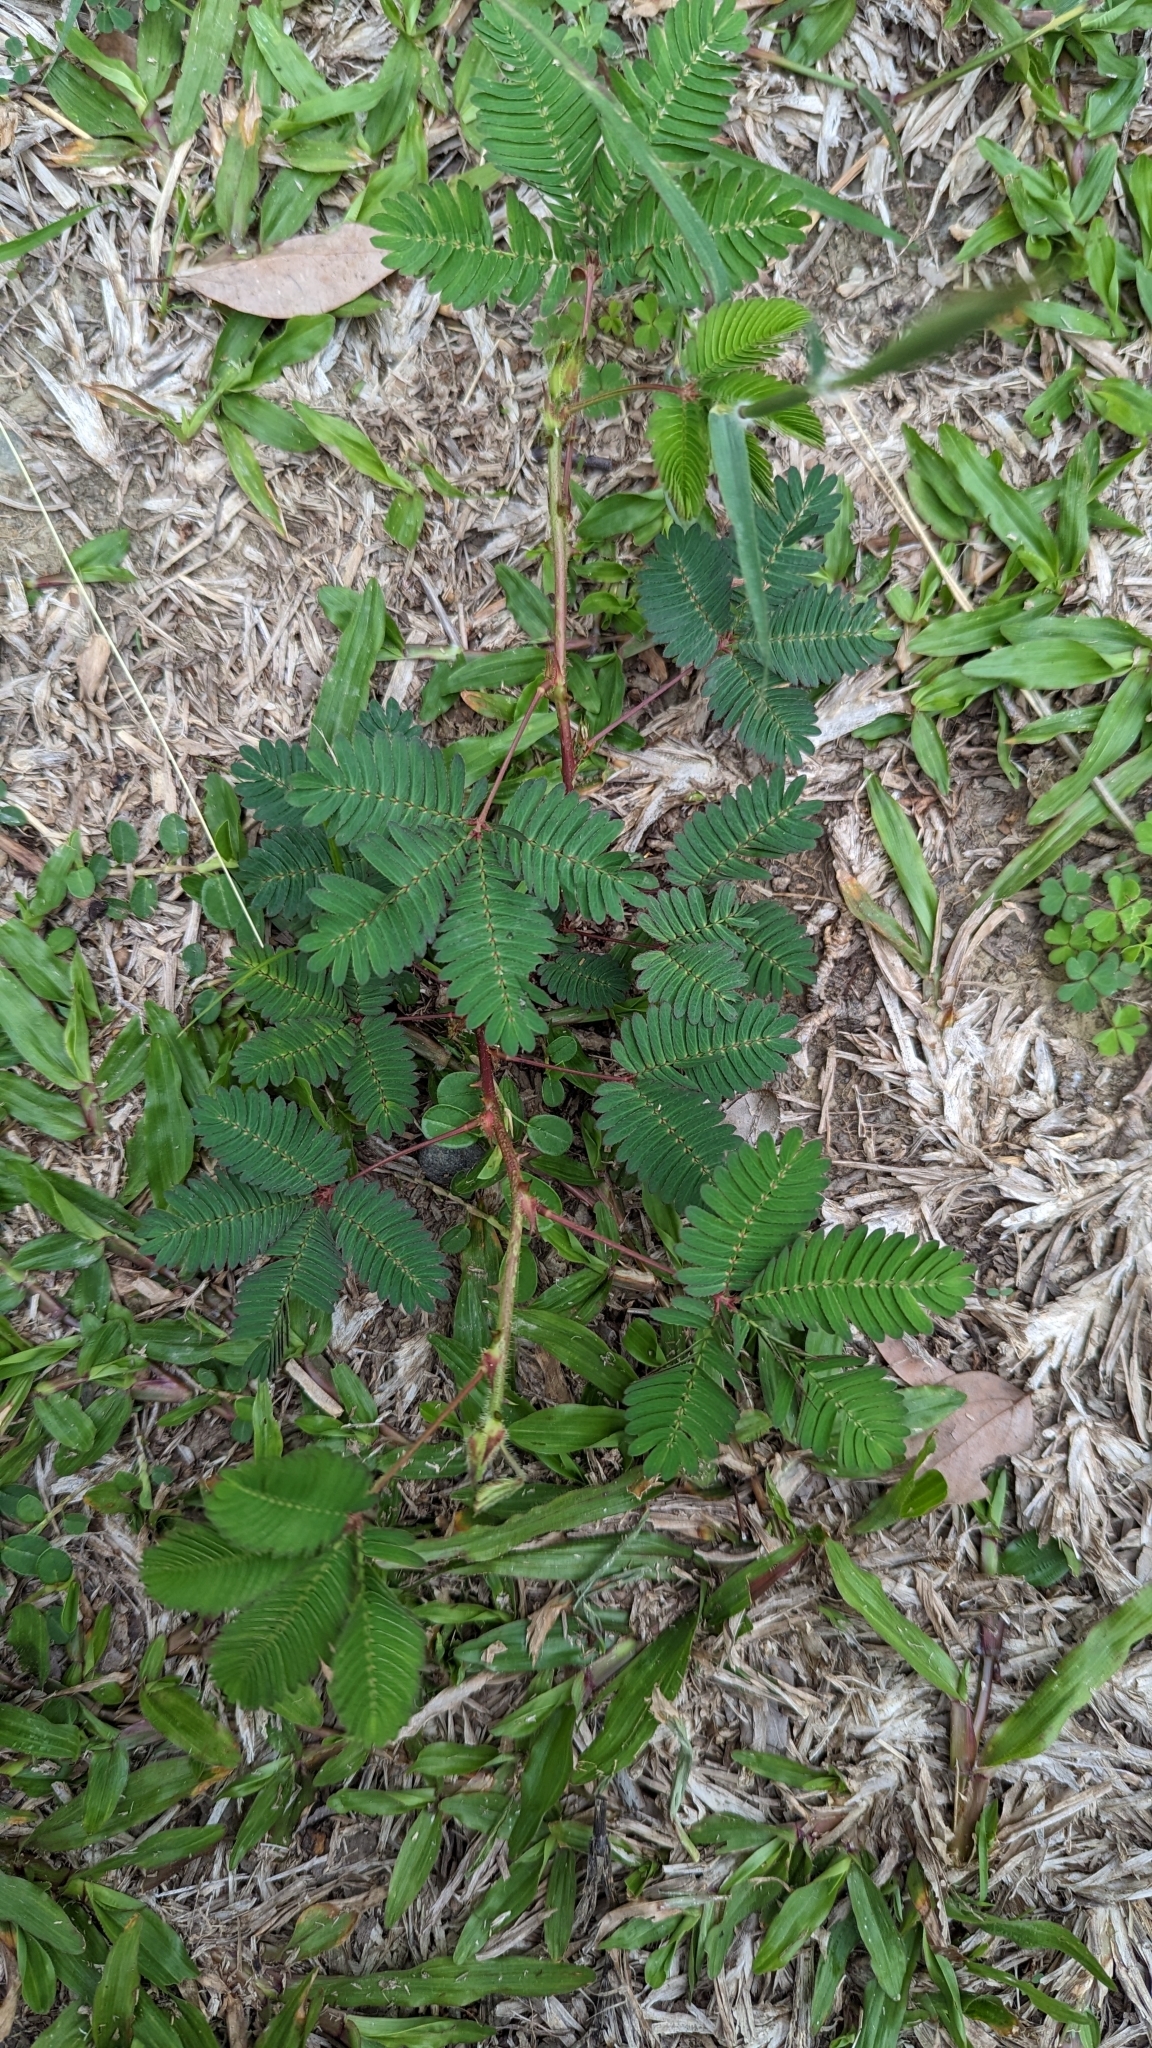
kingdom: Plantae
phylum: Tracheophyta
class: Magnoliopsida
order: Fabales
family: Fabaceae
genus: Mimosa
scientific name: Mimosa pudica
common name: Sensitive plant
